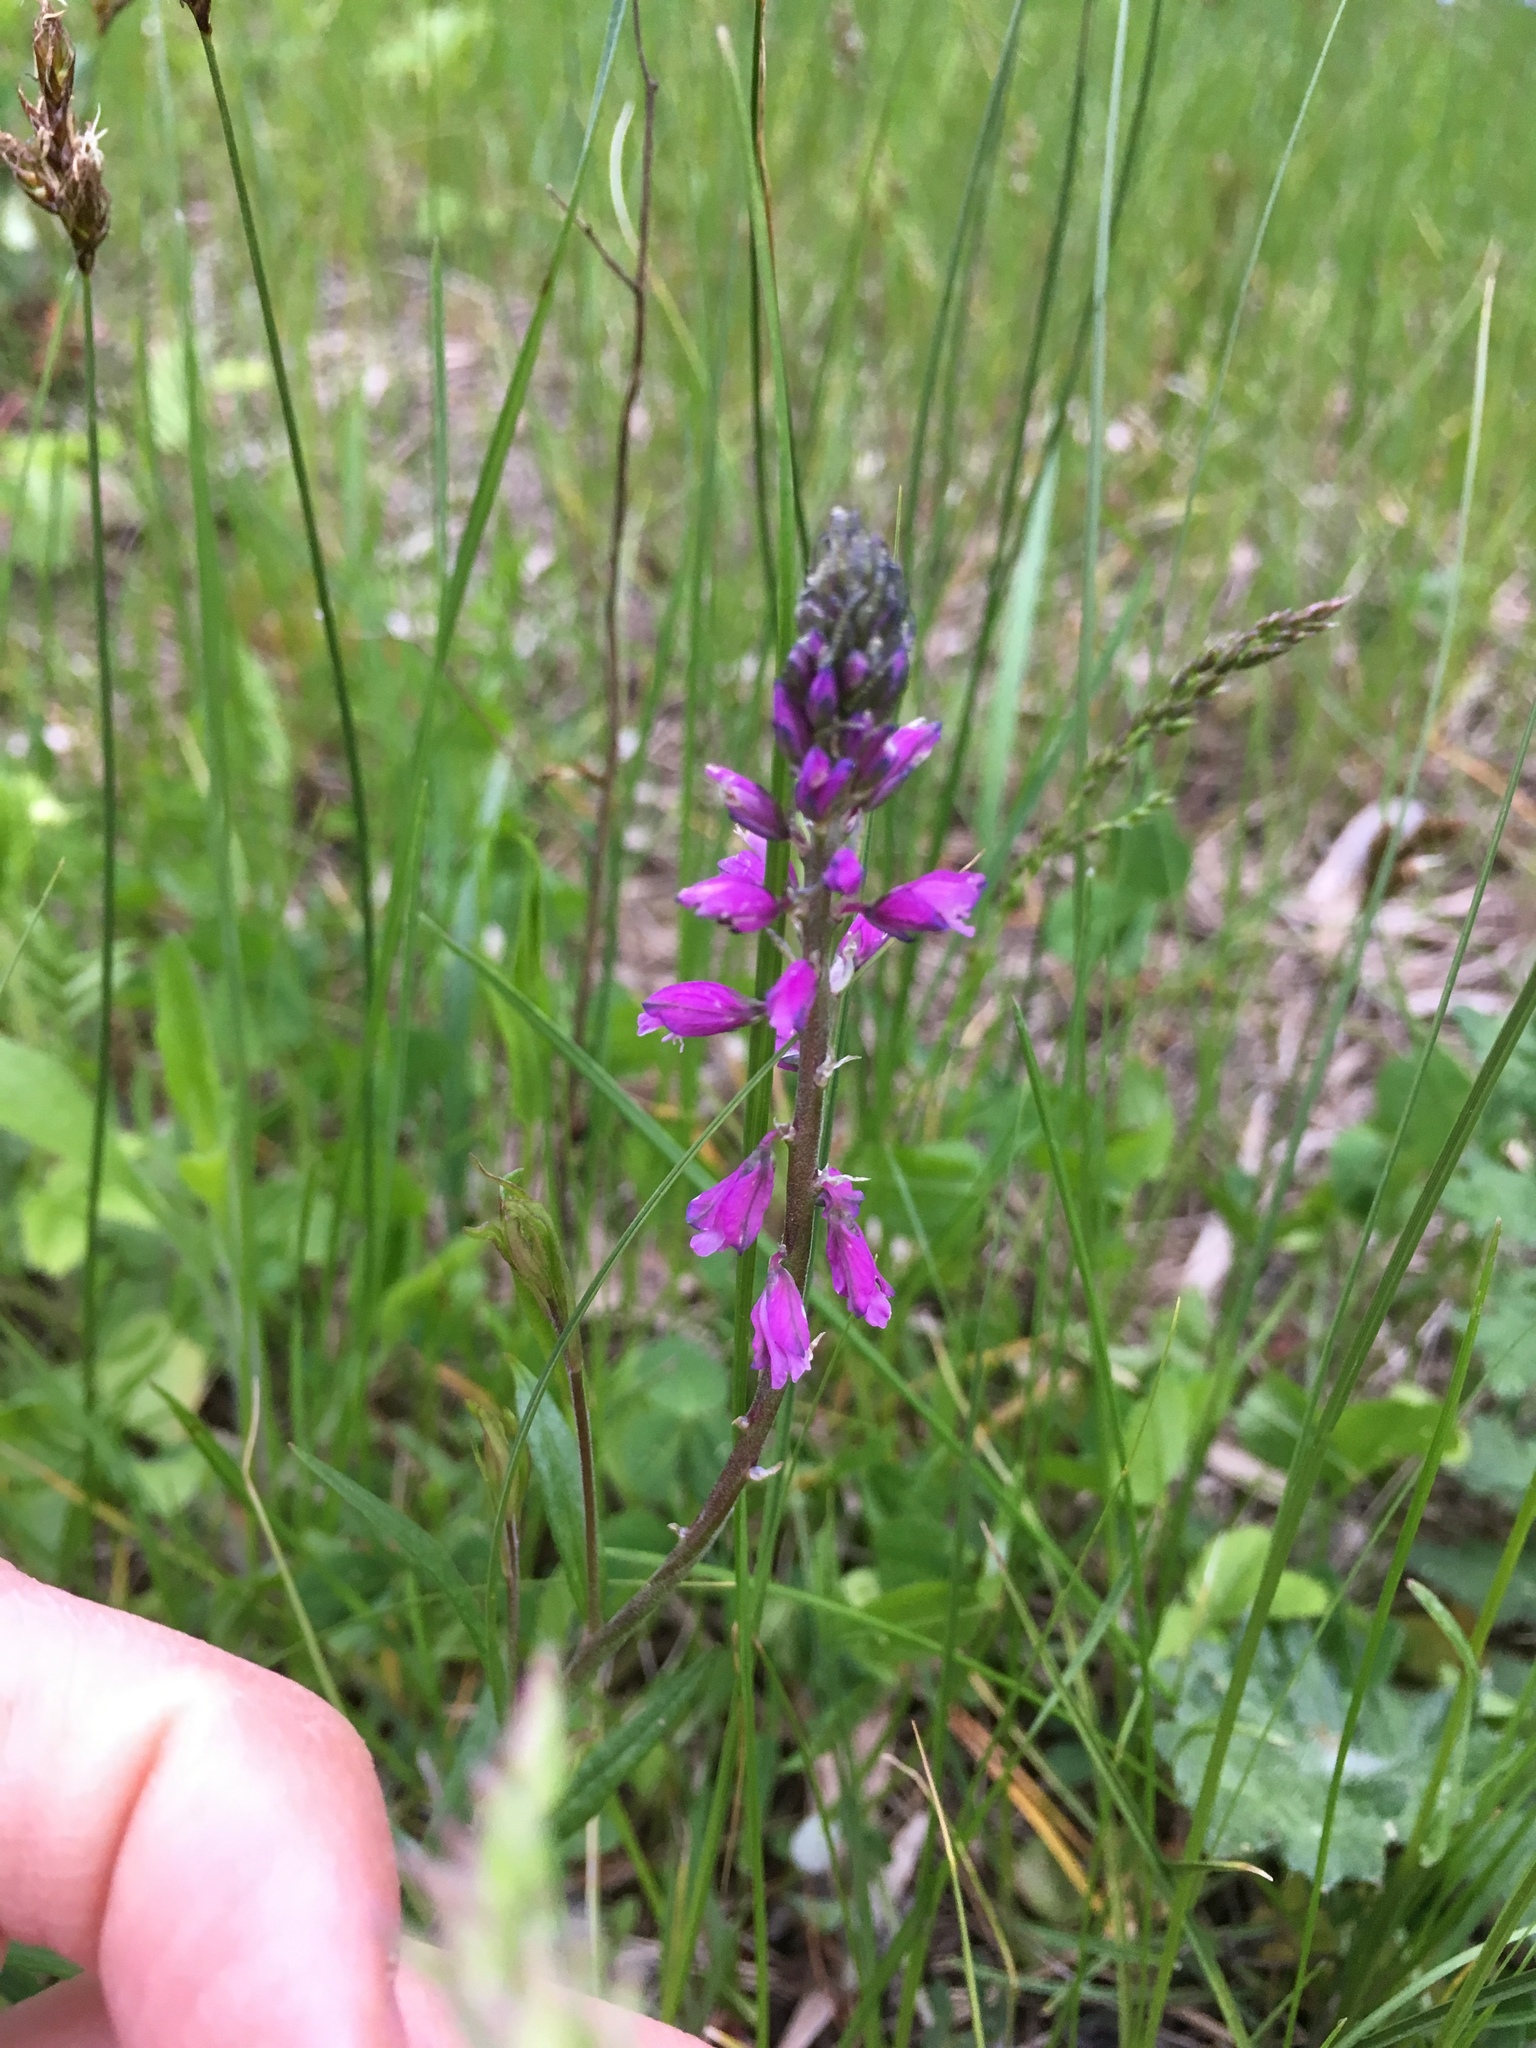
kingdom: Plantae
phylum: Tracheophyta
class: Magnoliopsida
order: Fabales
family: Polygalaceae
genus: Polygala
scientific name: Polygala comosa
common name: Tufted milkwort
